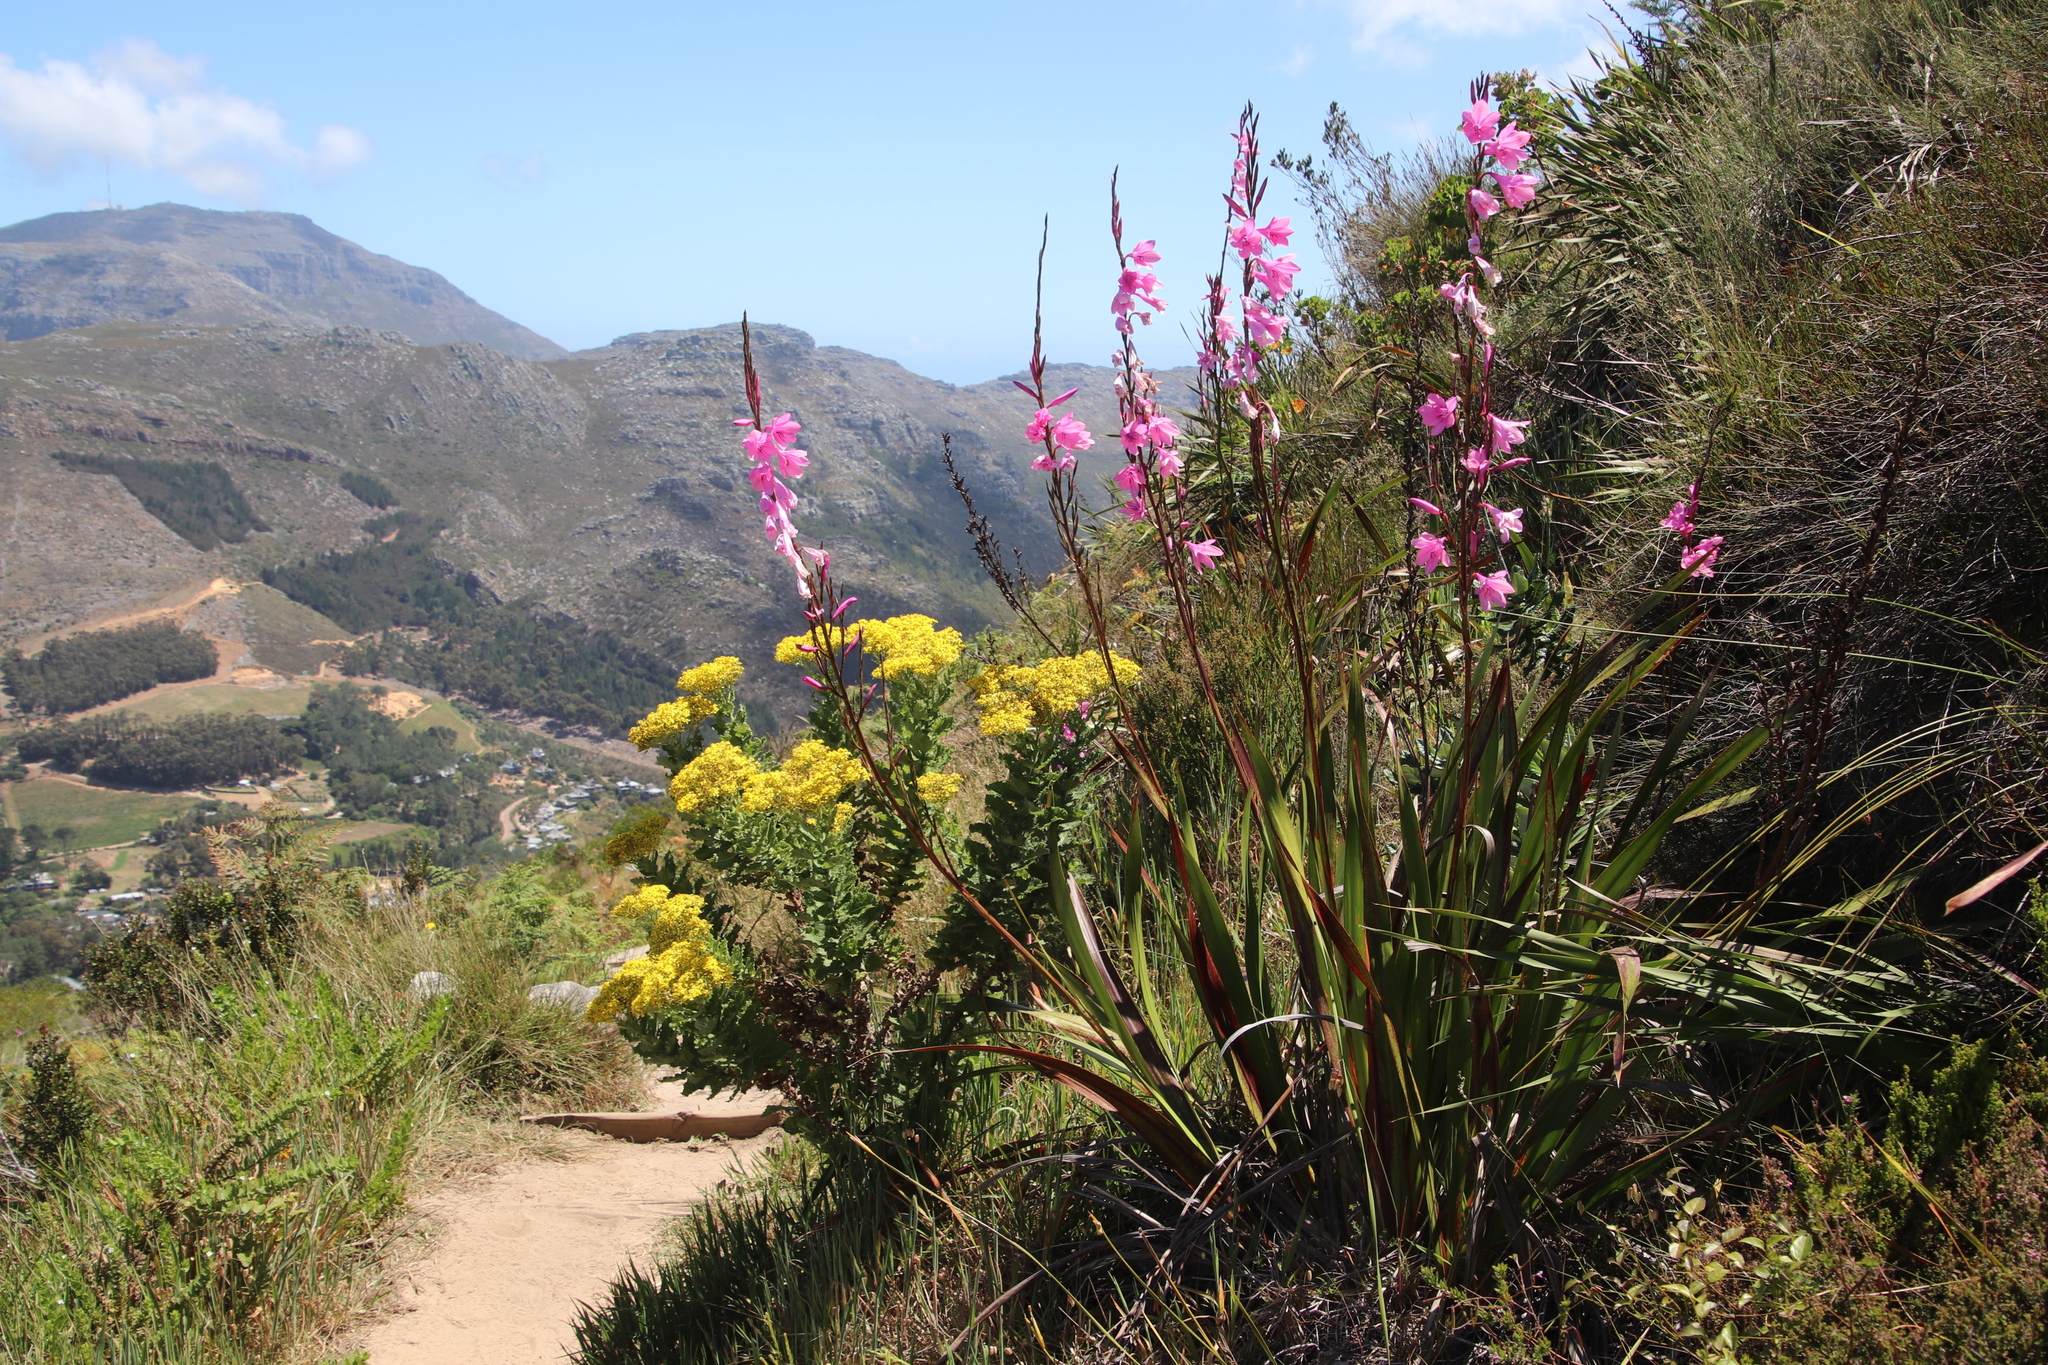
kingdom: Plantae
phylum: Tracheophyta
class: Liliopsida
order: Asparagales
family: Iridaceae
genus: Watsonia
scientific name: Watsonia borbonica
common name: Bugle-lily
